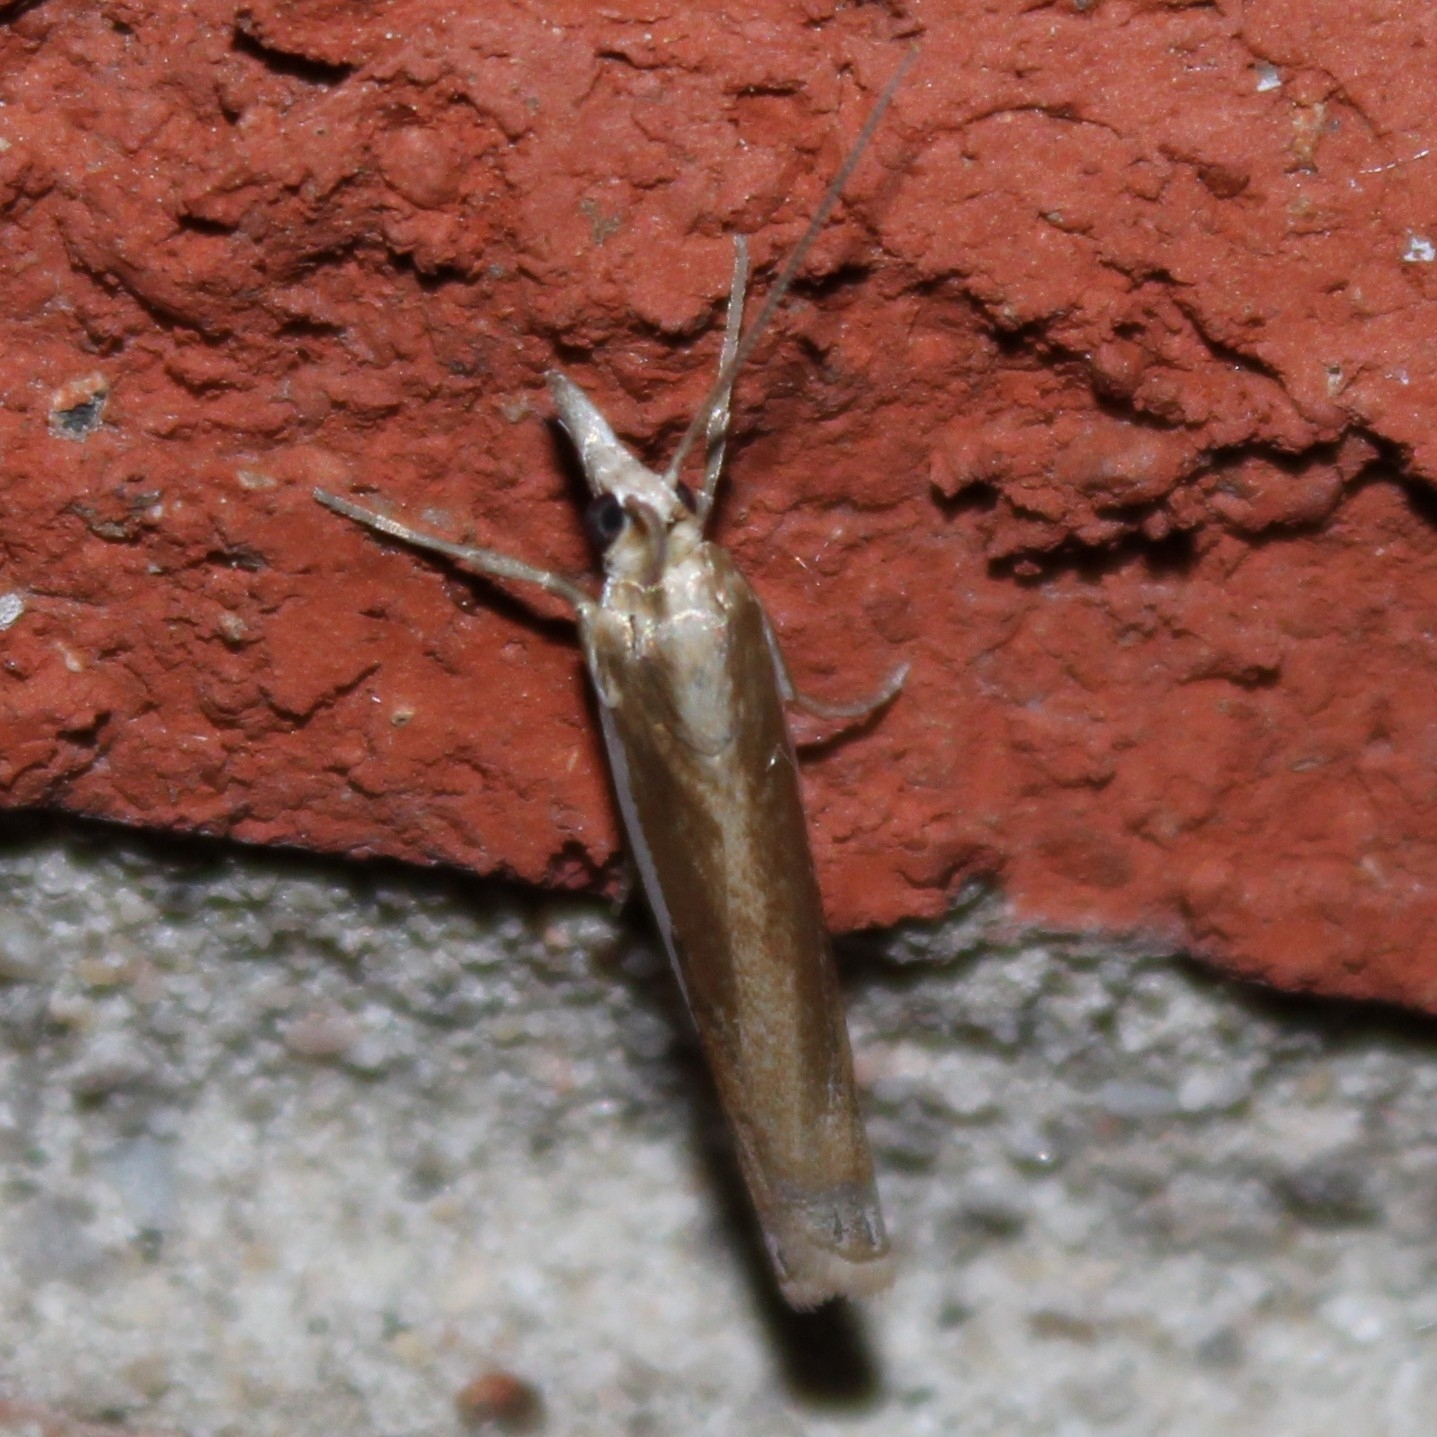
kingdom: Animalia
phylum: Arthropoda
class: Insecta
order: Lepidoptera
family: Crambidae
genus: Crambus
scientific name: Crambus praefectellus
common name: Common grass-veneer
